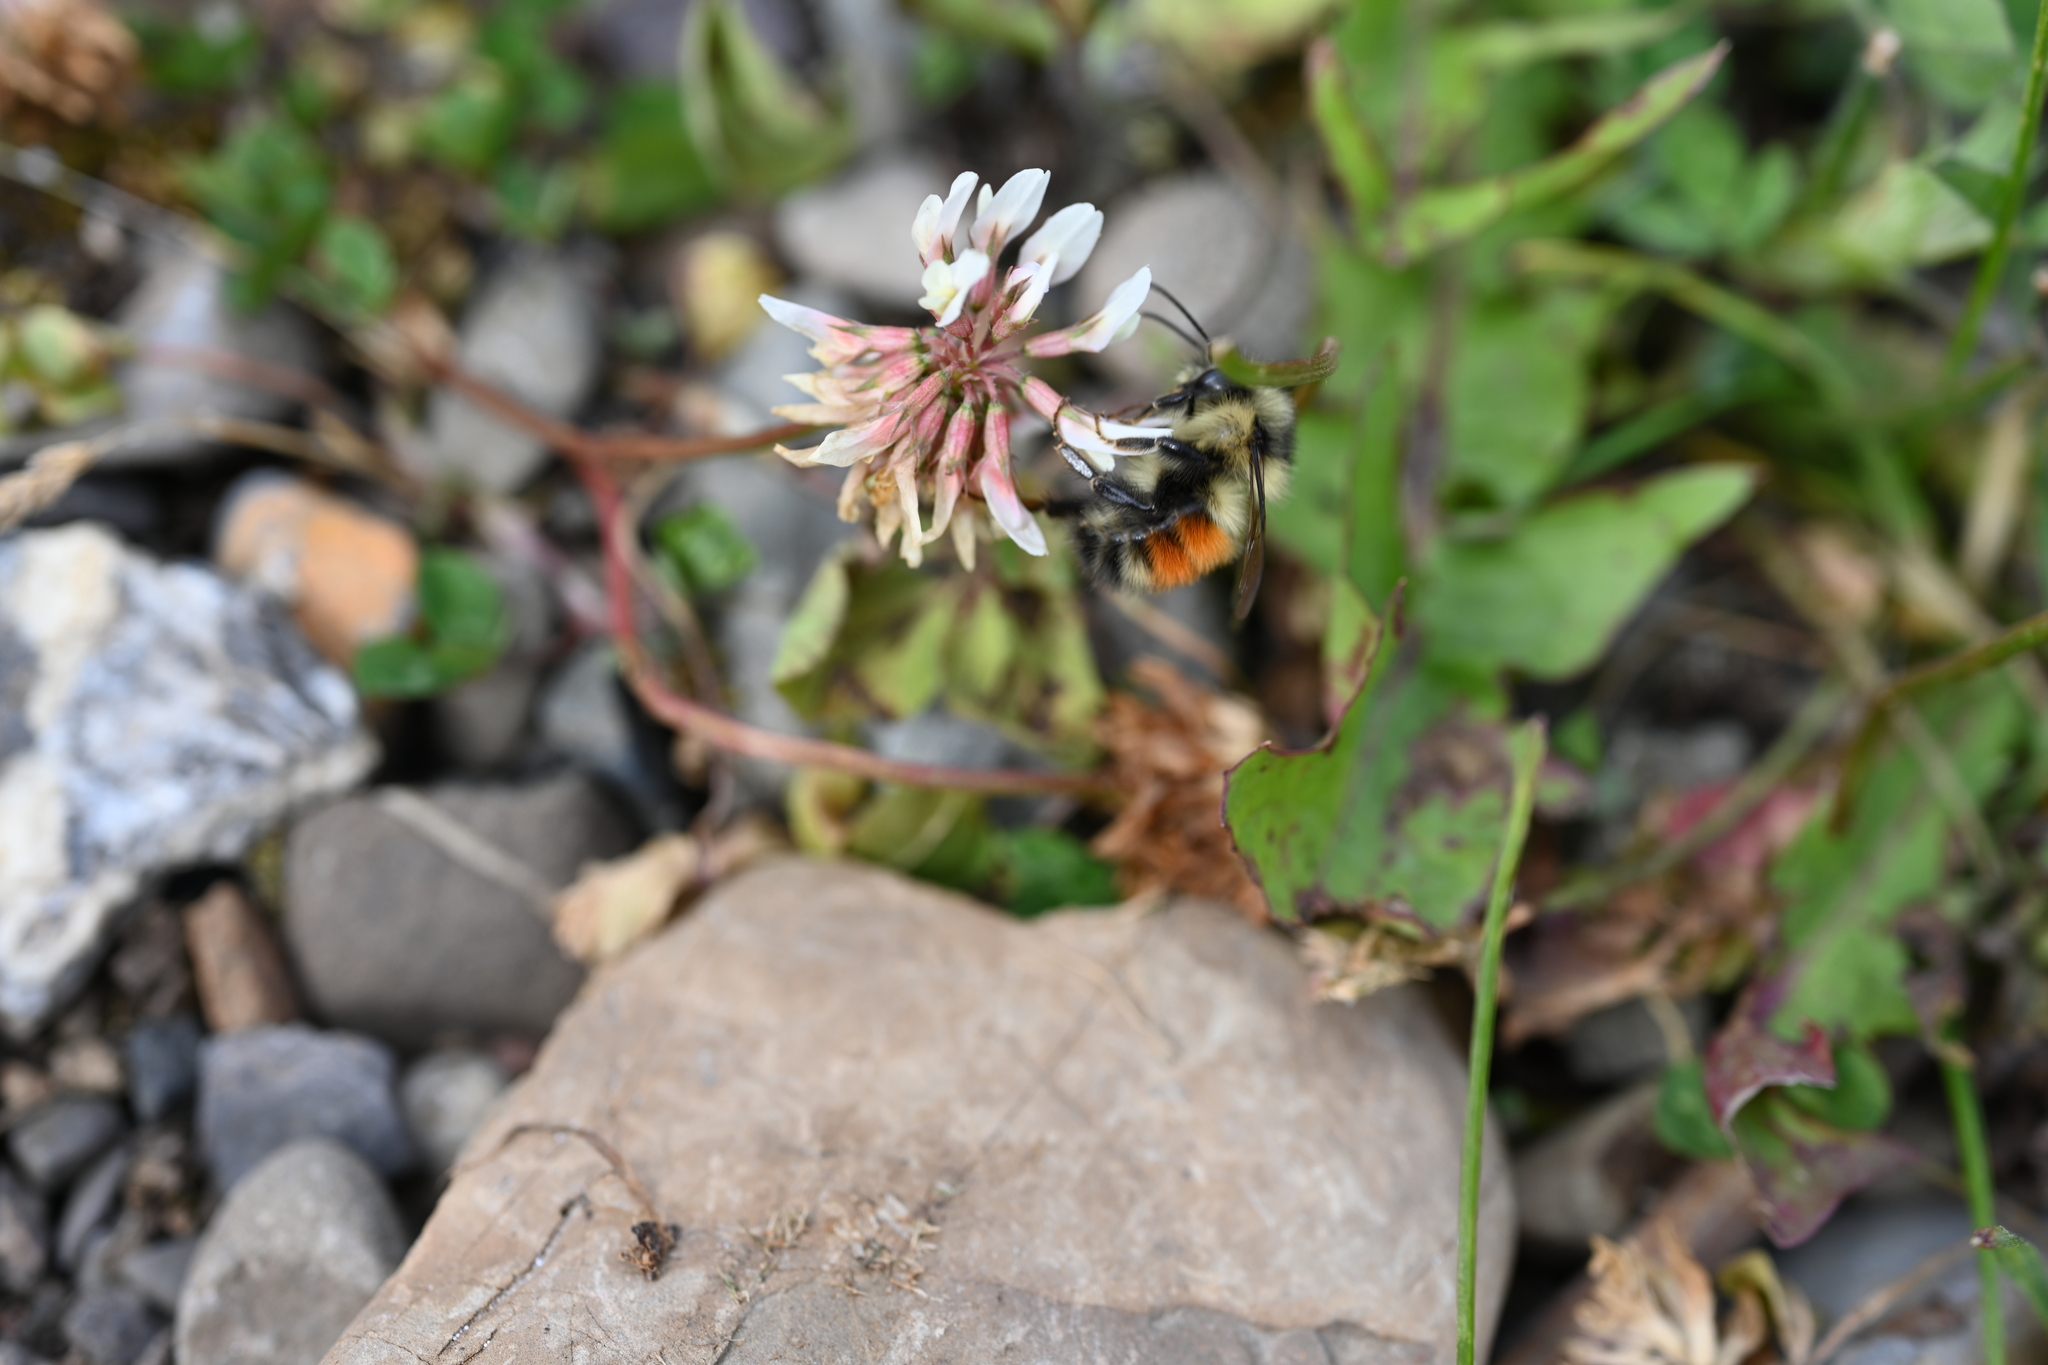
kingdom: Animalia
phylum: Arthropoda
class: Insecta
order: Hymenoptera
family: Apidae
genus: Bombus
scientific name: Bombus melanopygus
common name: Black tail bumble bee
